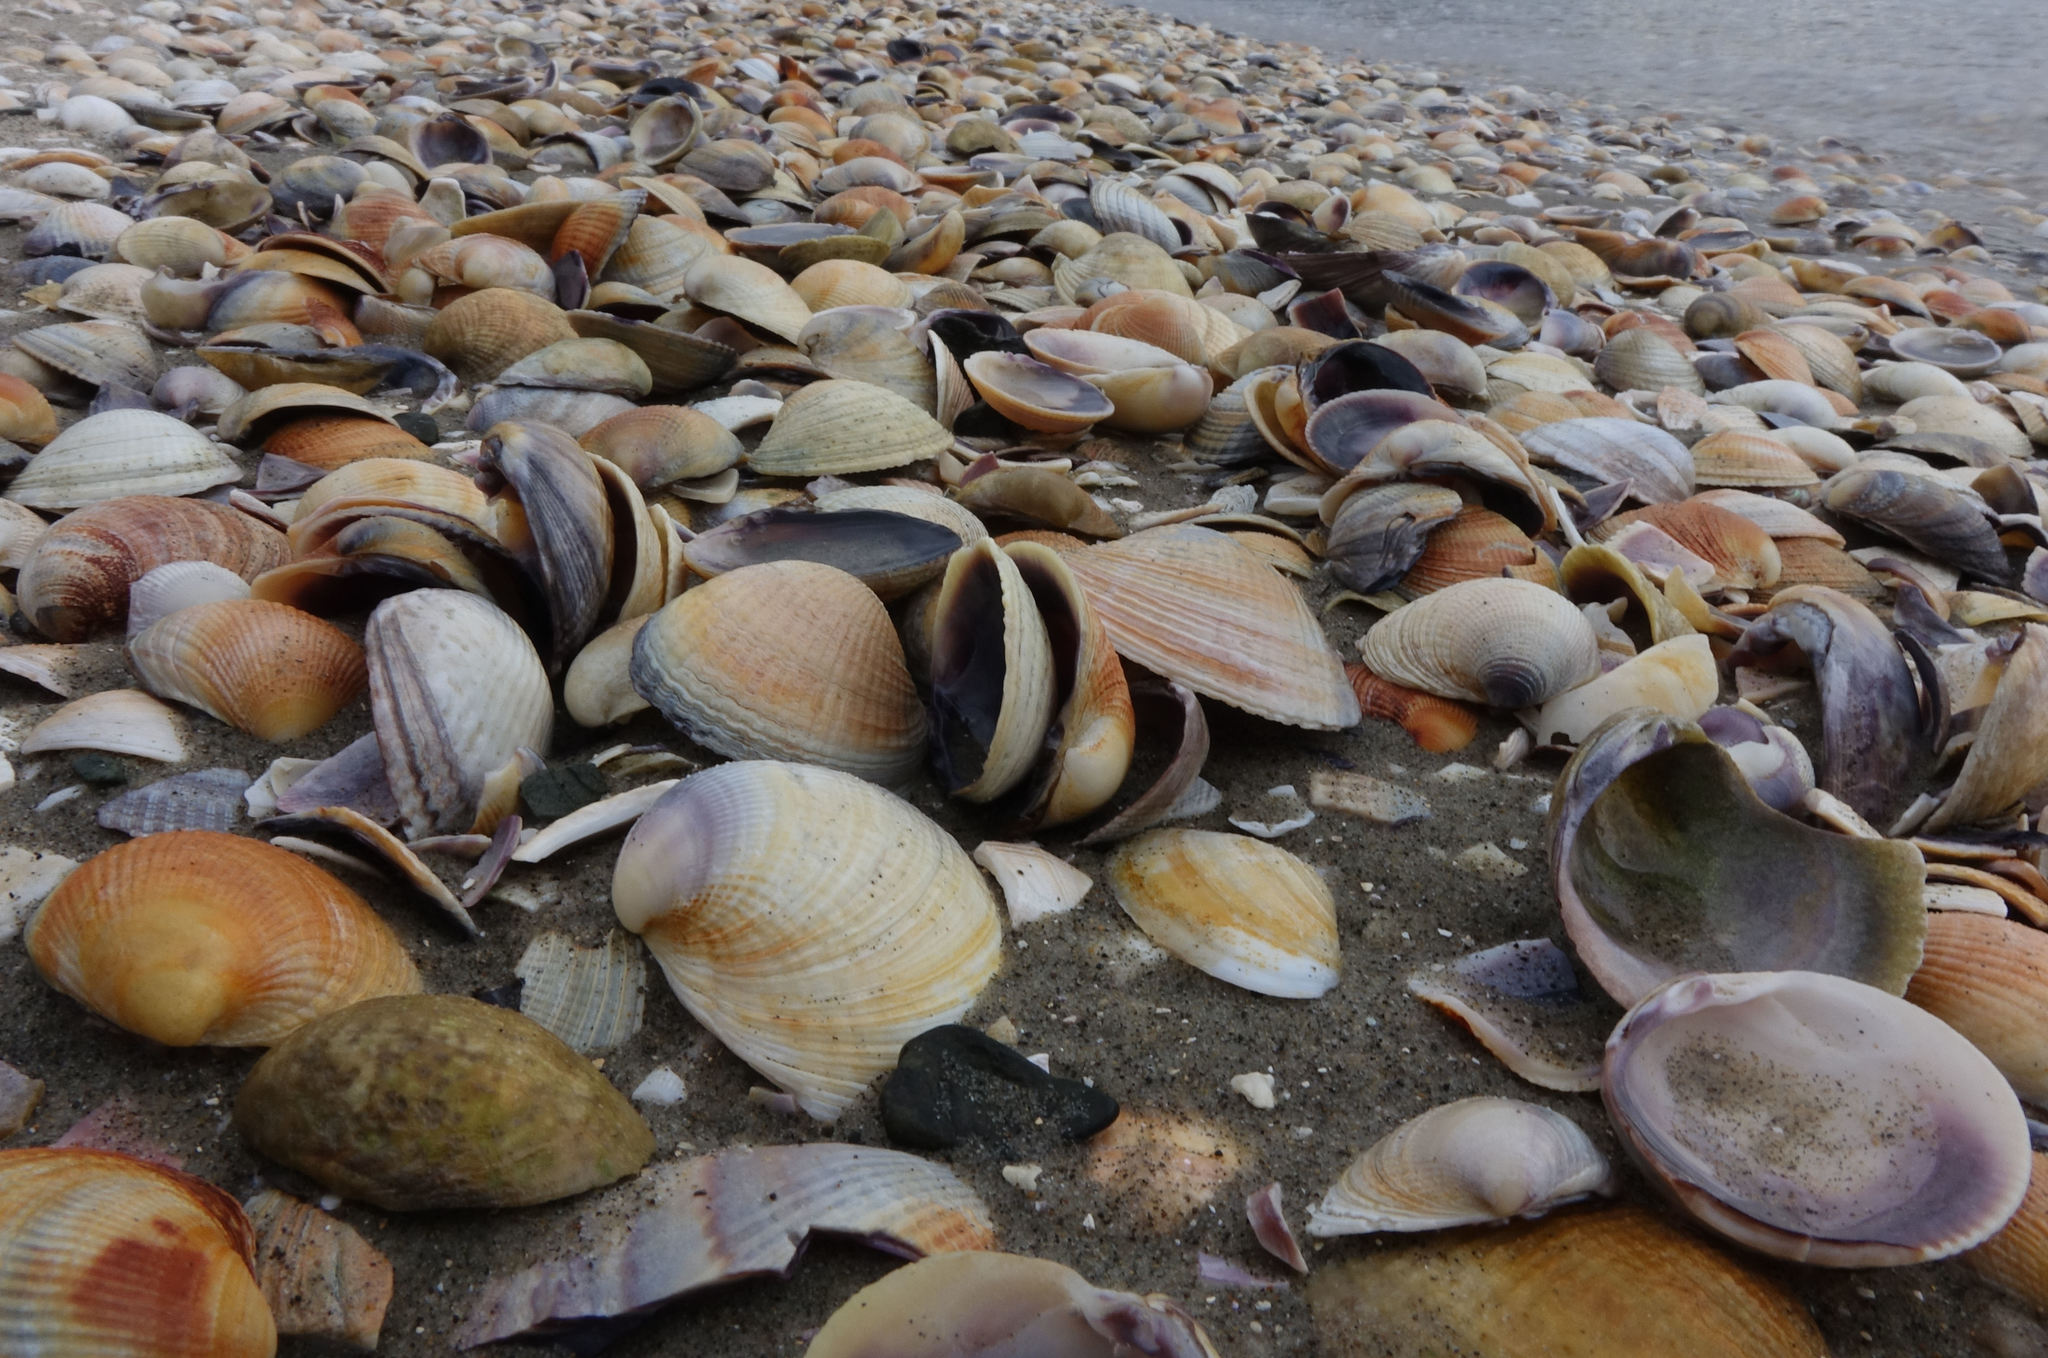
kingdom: Animalia
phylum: Mollusca
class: Bivalvia
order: Venerida
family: Veneridae
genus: Austrovenus
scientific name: Austrovenus stutchburyi
